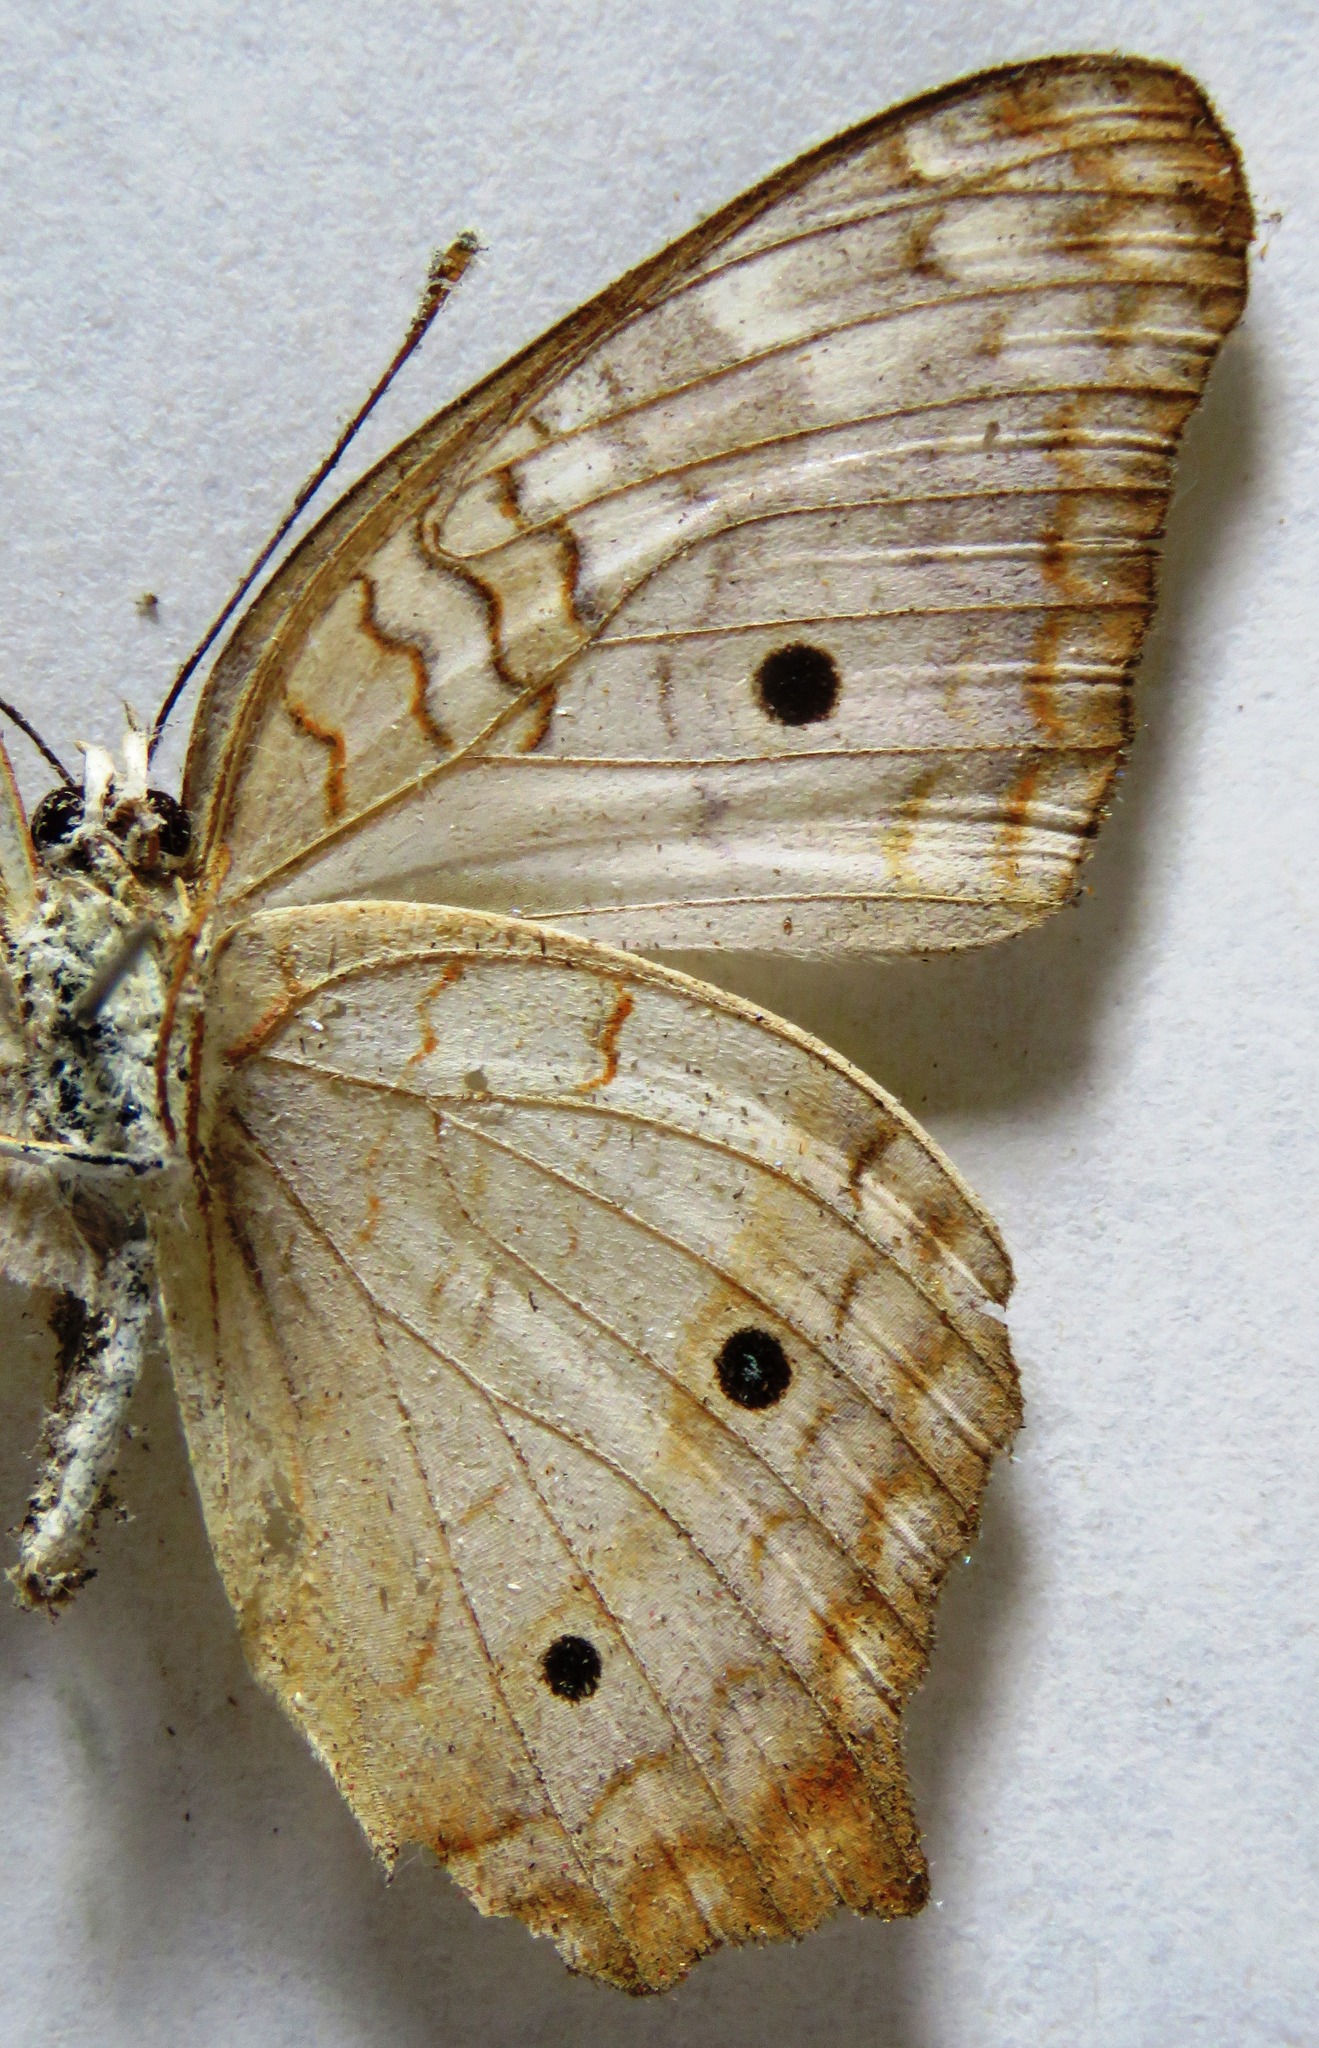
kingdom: Animalia
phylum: Arthropoda
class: Insecta
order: Lepidoptera
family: Nymphalidae
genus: Anartia
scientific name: Anartia jatrophae
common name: White peacock
